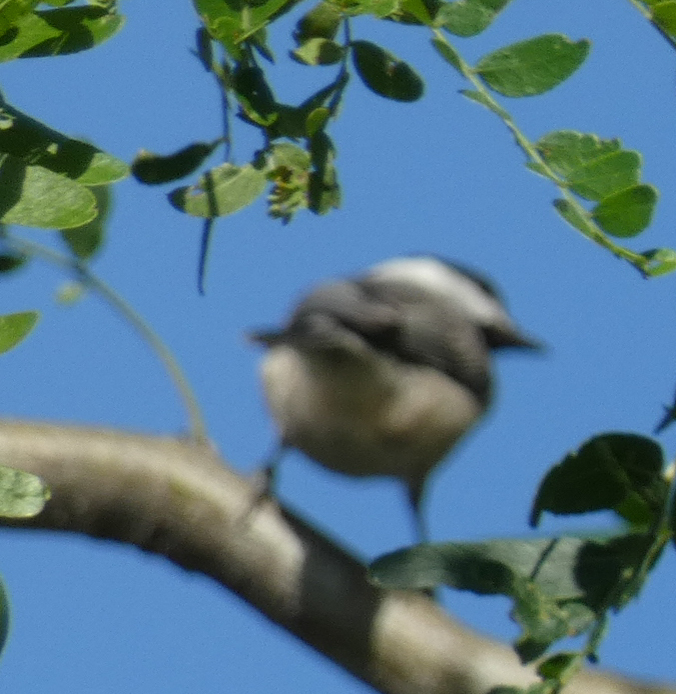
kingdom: Animalia
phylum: Chordata
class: Aves
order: Passeriformes
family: Paridae
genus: Poecile
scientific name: Poecile carolinensis
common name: Carolina chickadee
